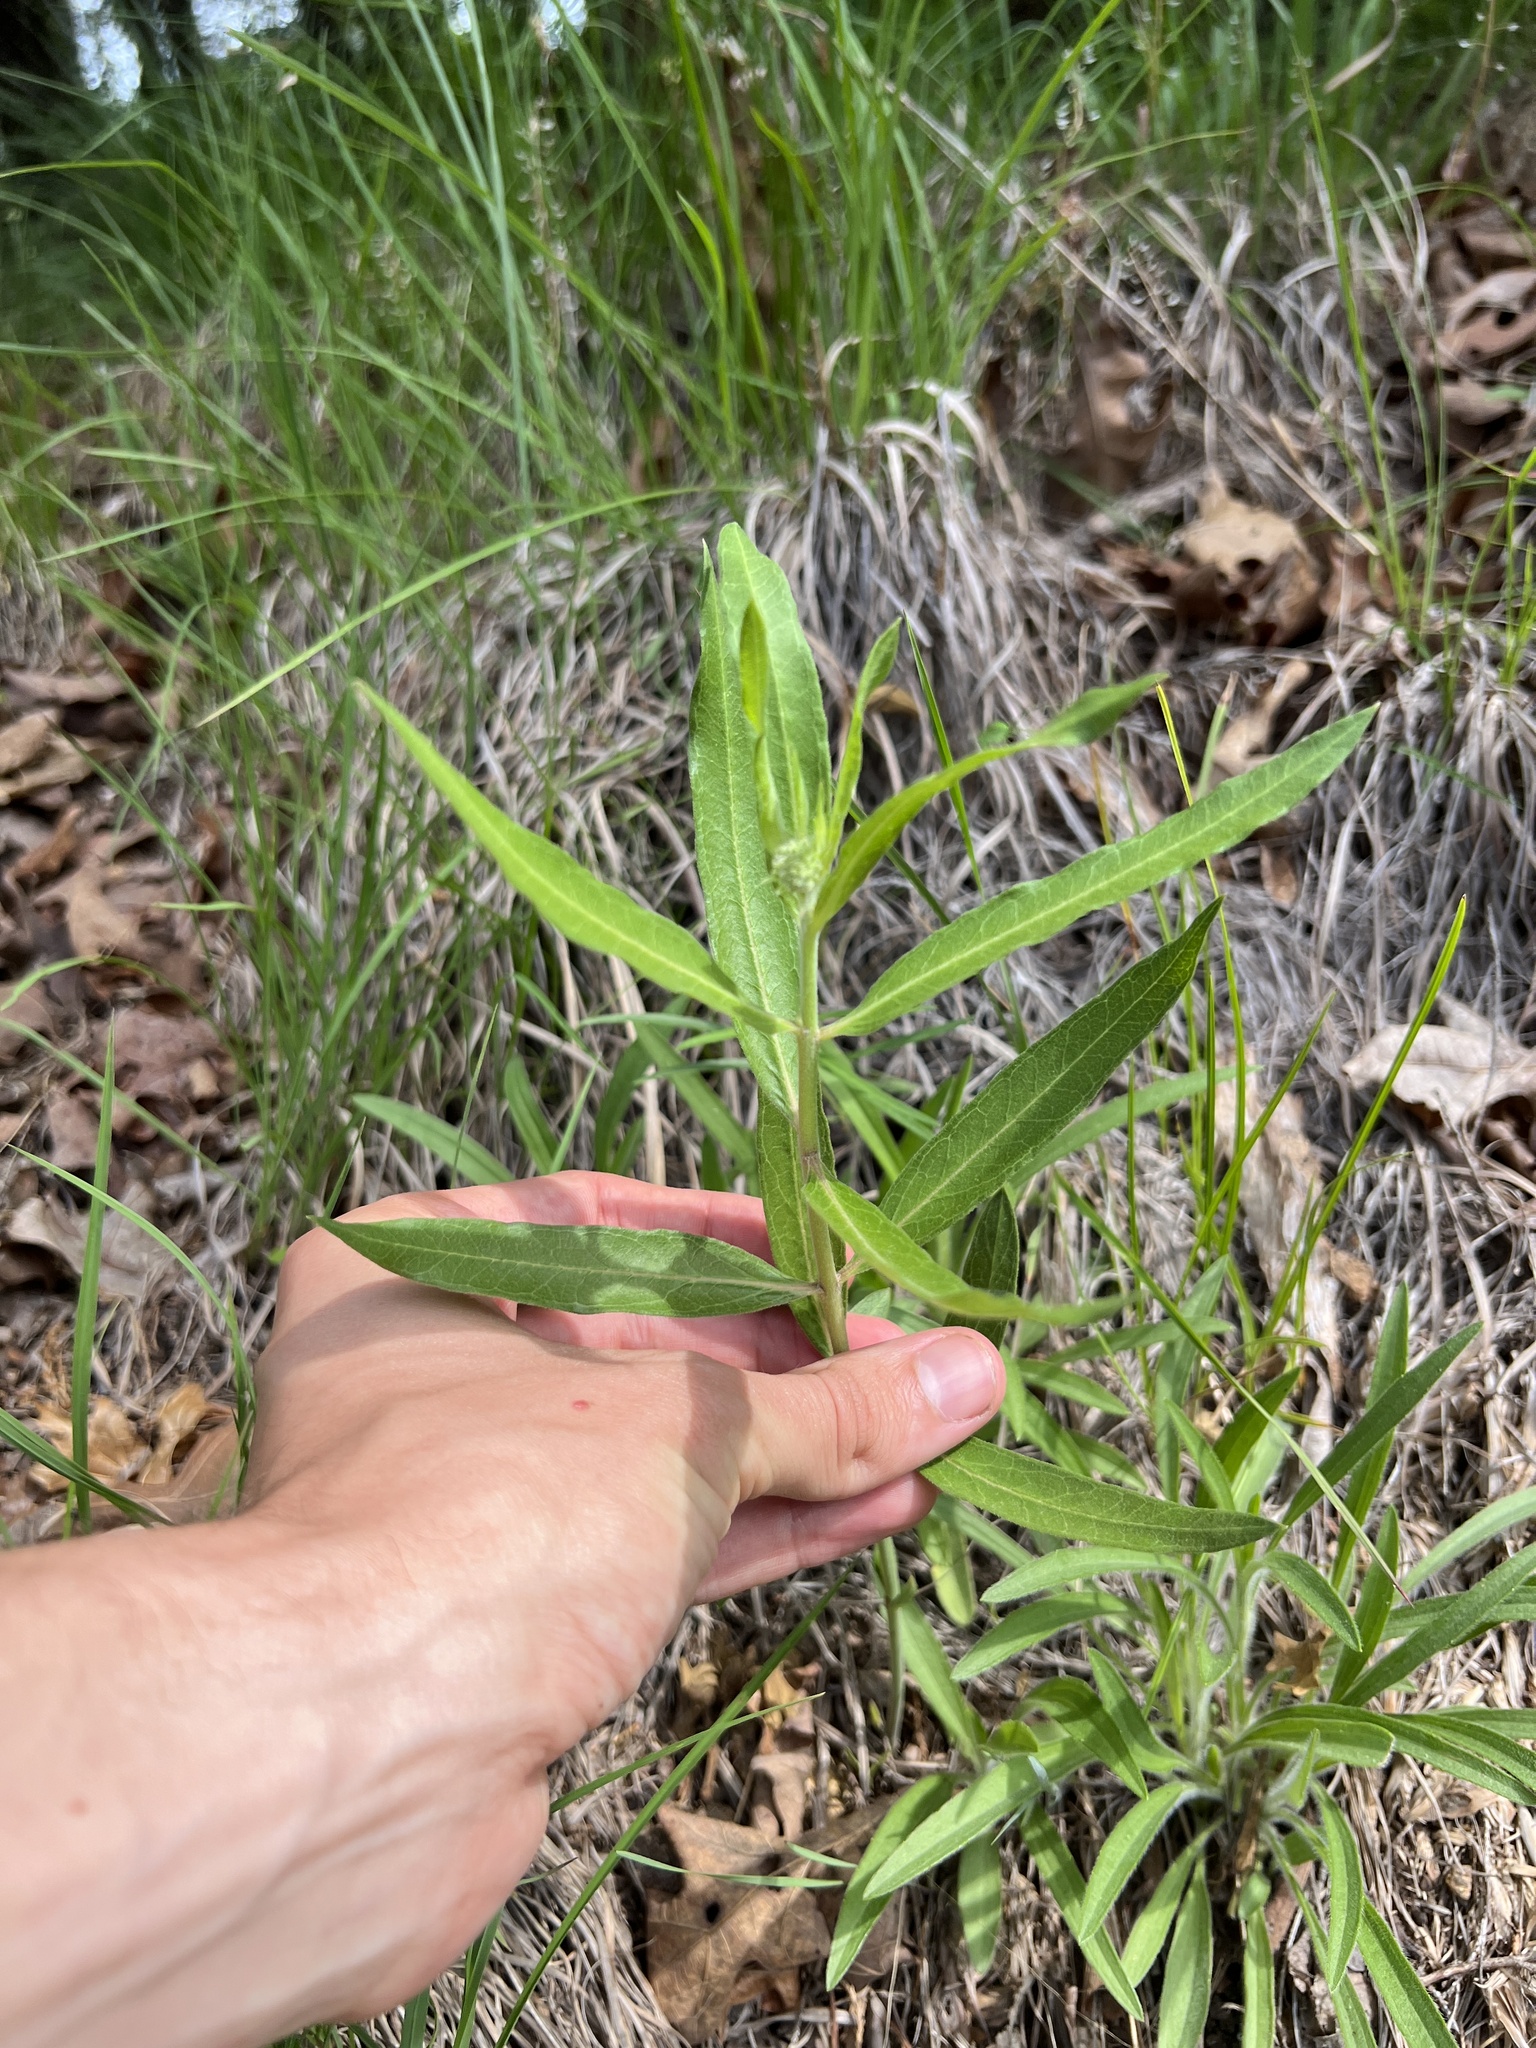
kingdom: Plantae
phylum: Tracheophyta
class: Magnoliopsida
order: Gentianales
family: Apocynaceae
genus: Asclepias
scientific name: Asclepias viridiflora
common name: Green comet milkweed
